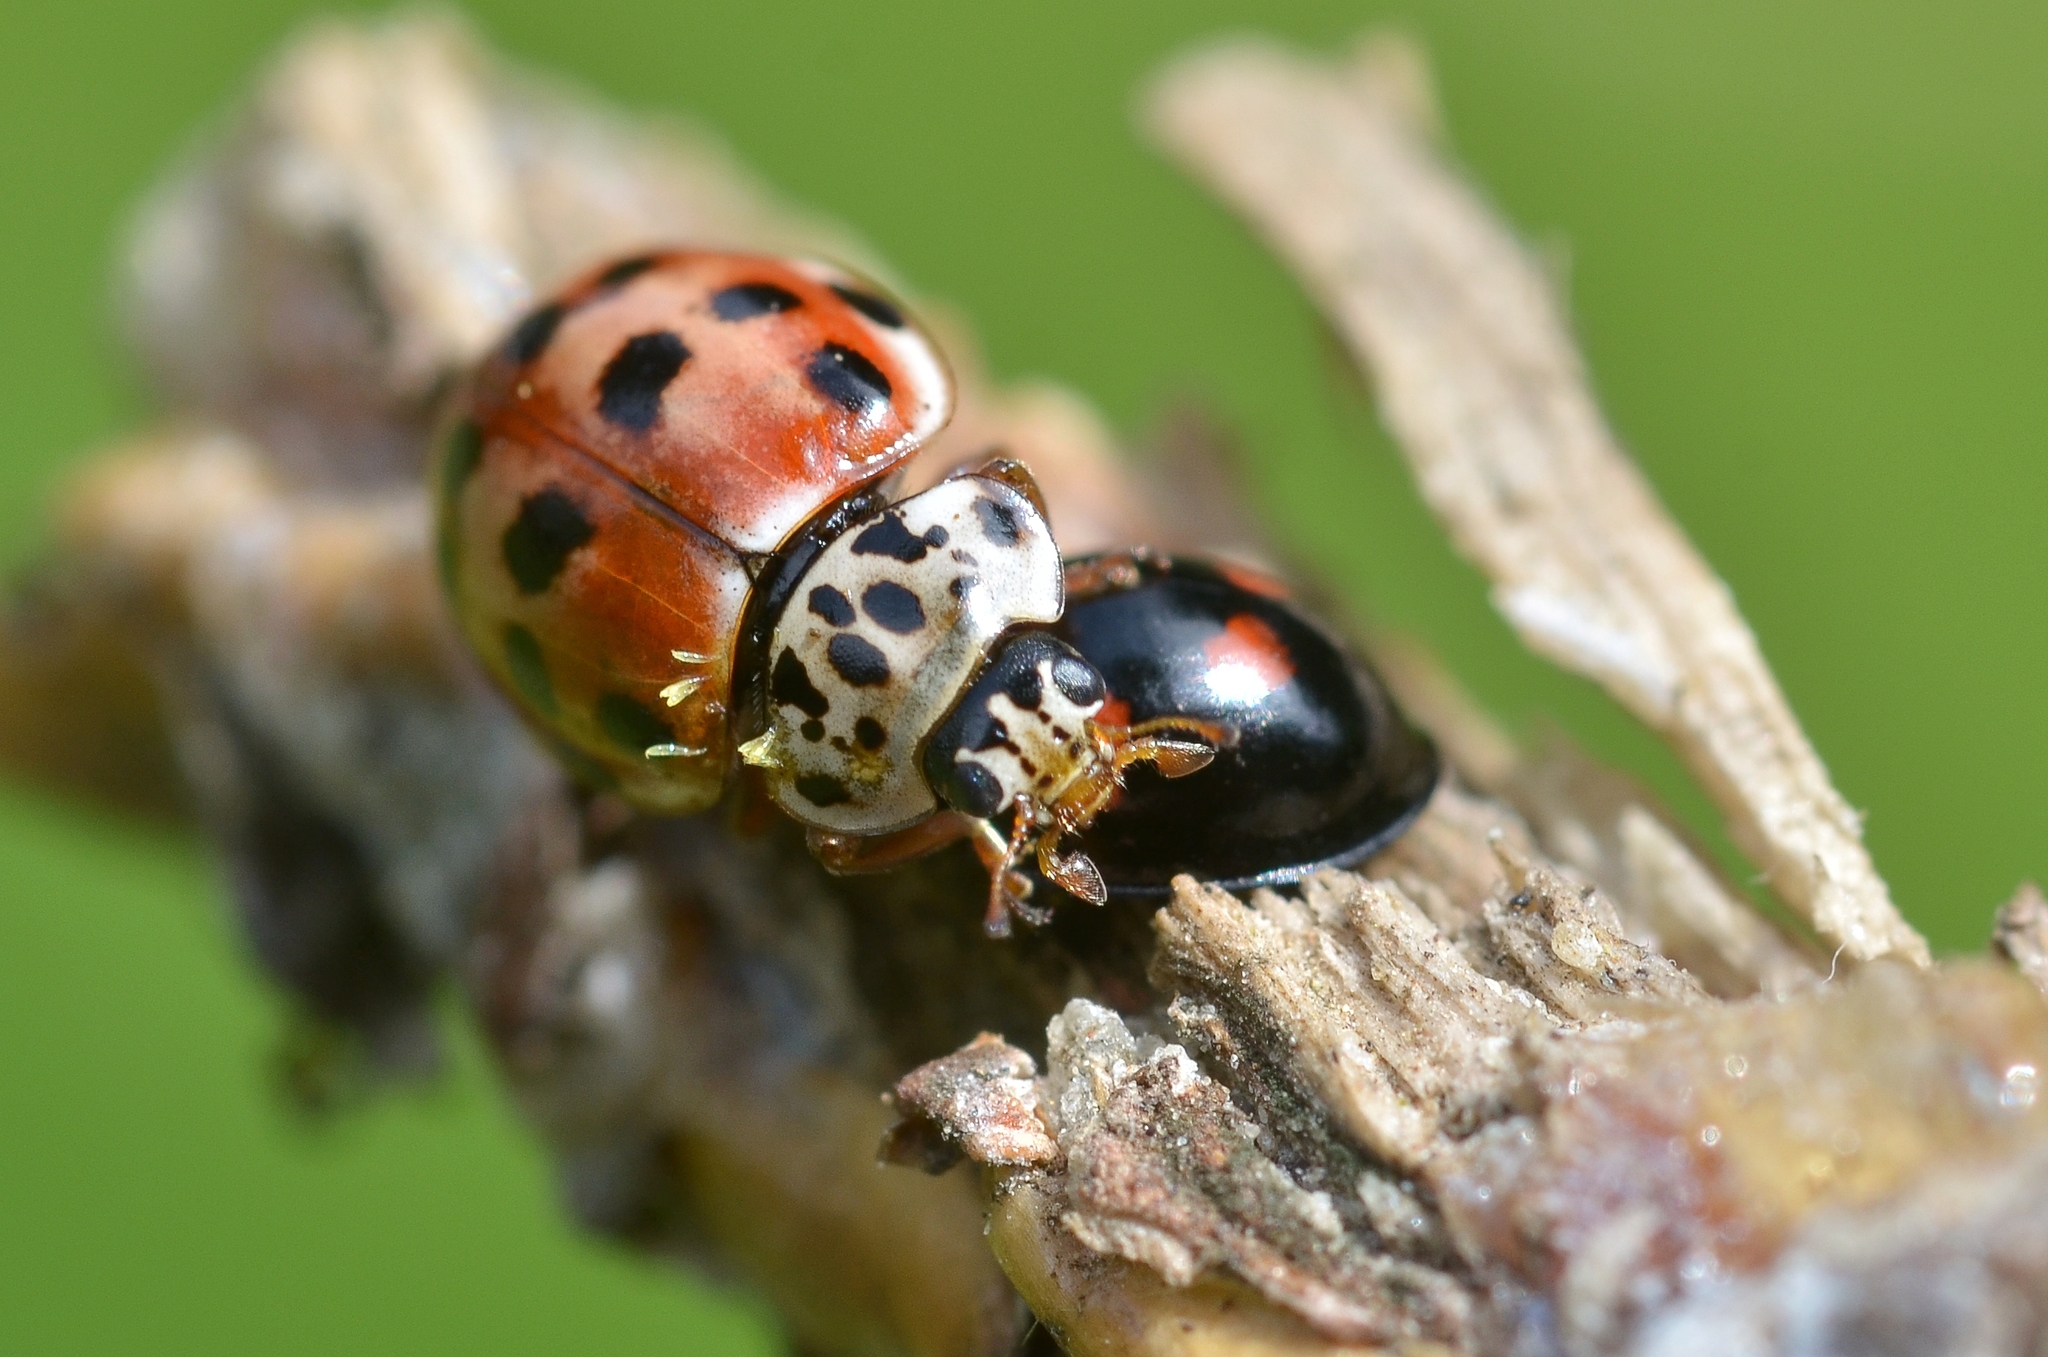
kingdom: Animalia
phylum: Arthropoda
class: Insecta
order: Coleoptera
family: Coccinellidae
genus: Harmonia
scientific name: Harmonia quadripunctata
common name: Cream-streaked ladybird
